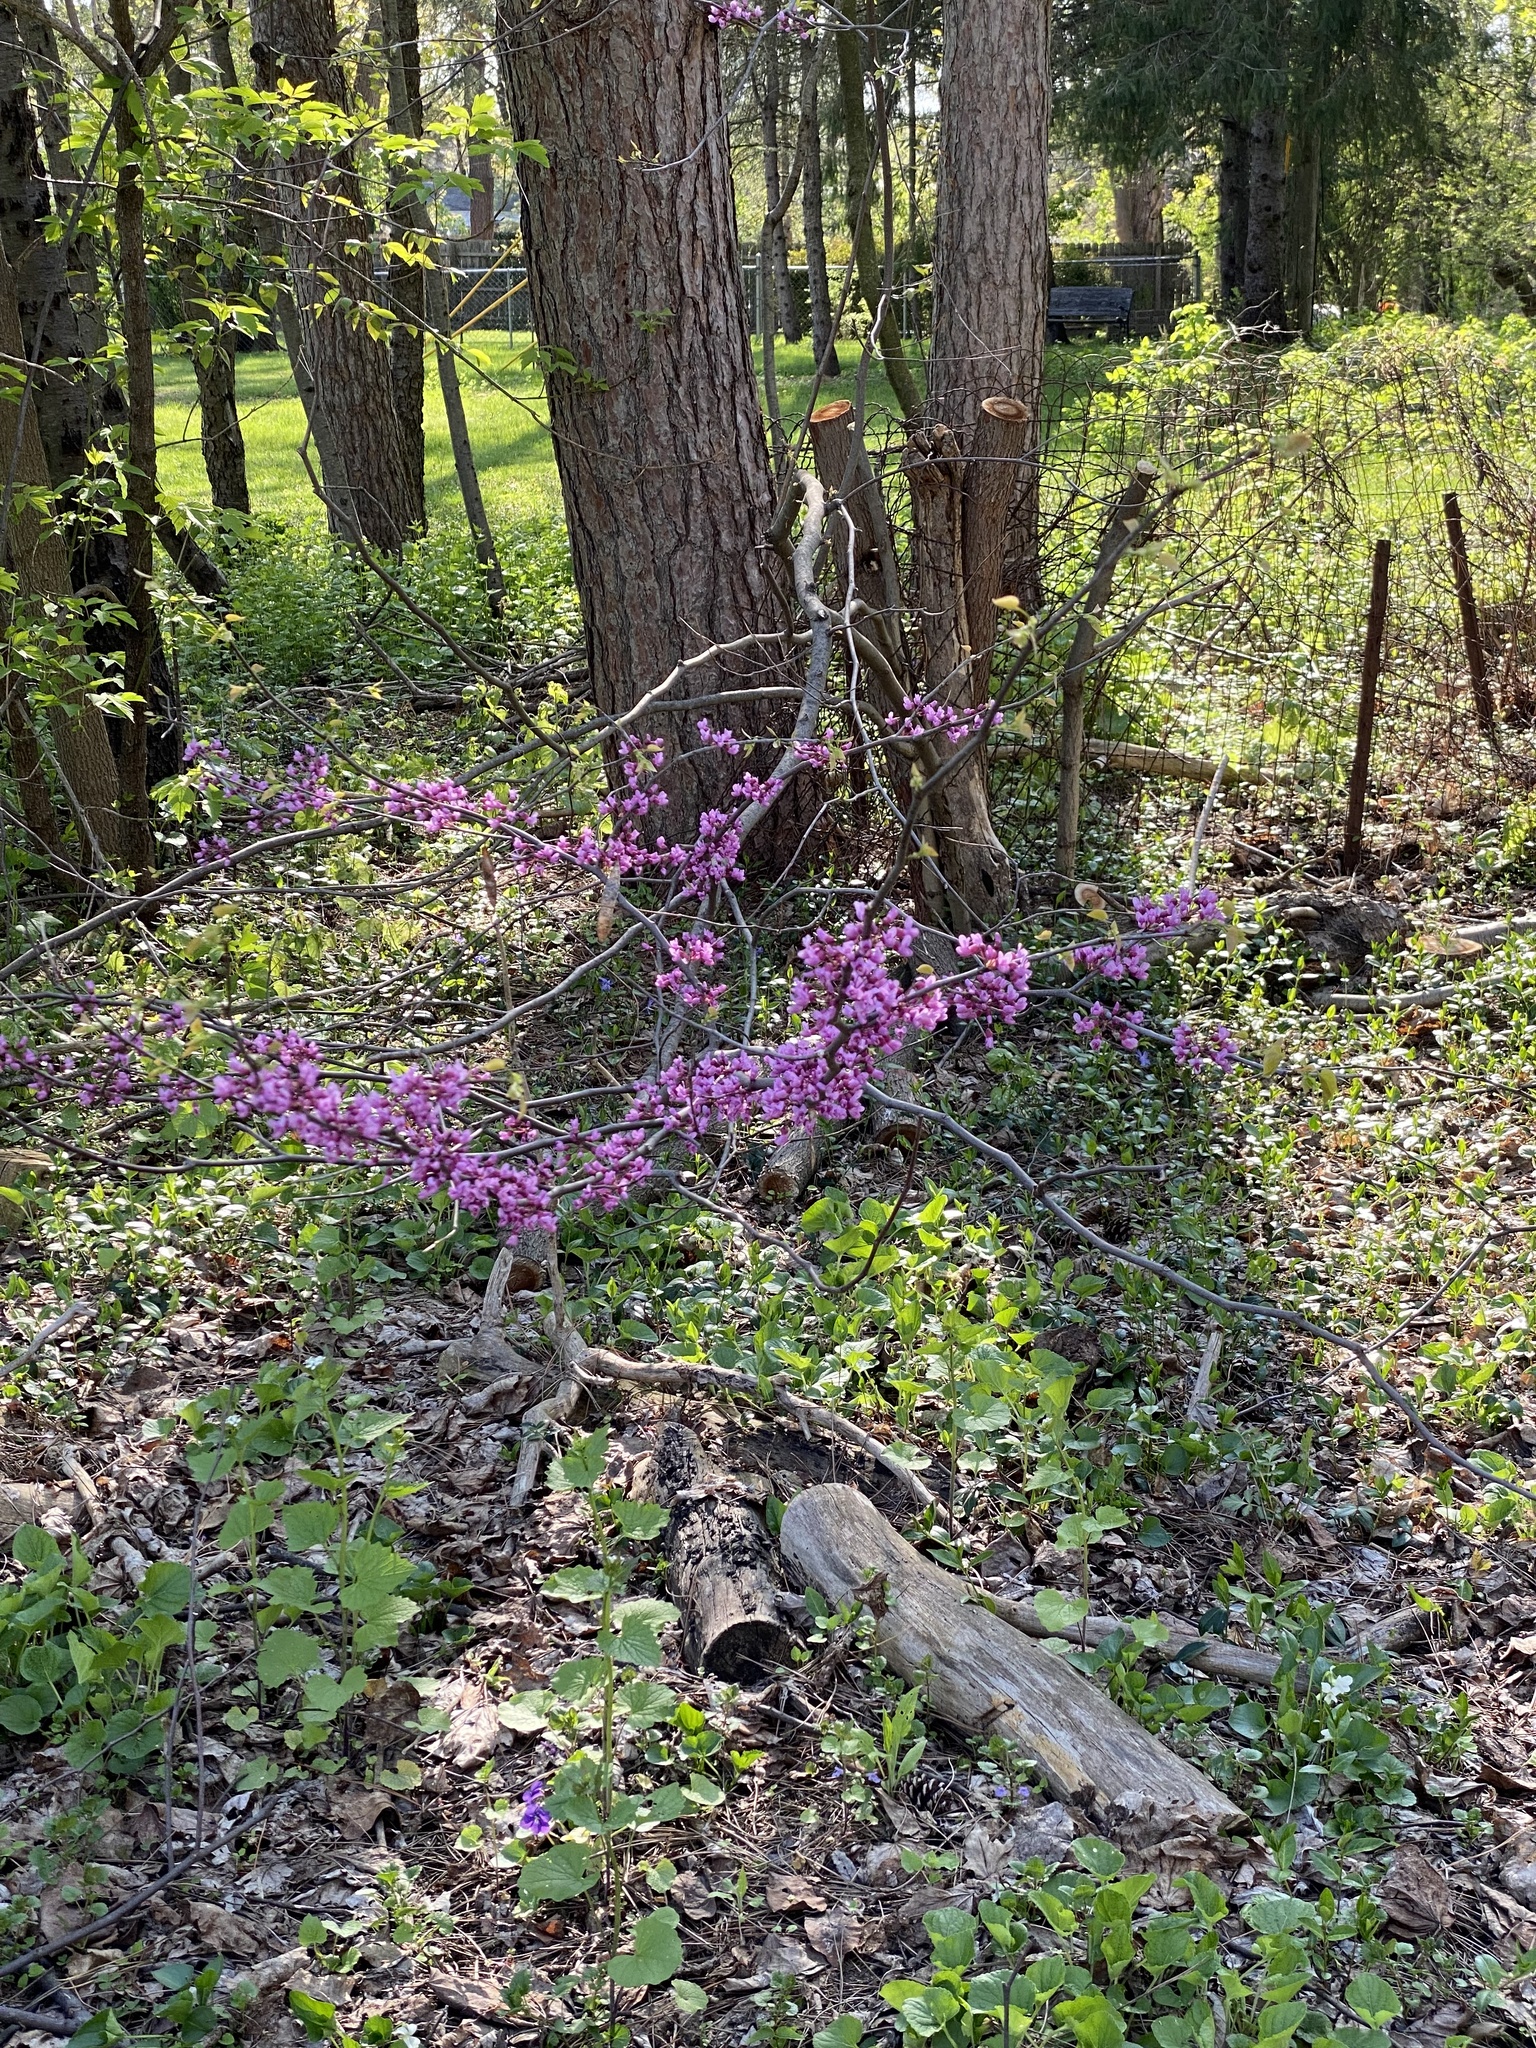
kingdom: Plantae
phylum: Tracheophyta
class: Magnoliopsida
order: Fabales
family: Fabaceae
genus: Cercis
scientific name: Cercis canadensis
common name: Eastern redbud
